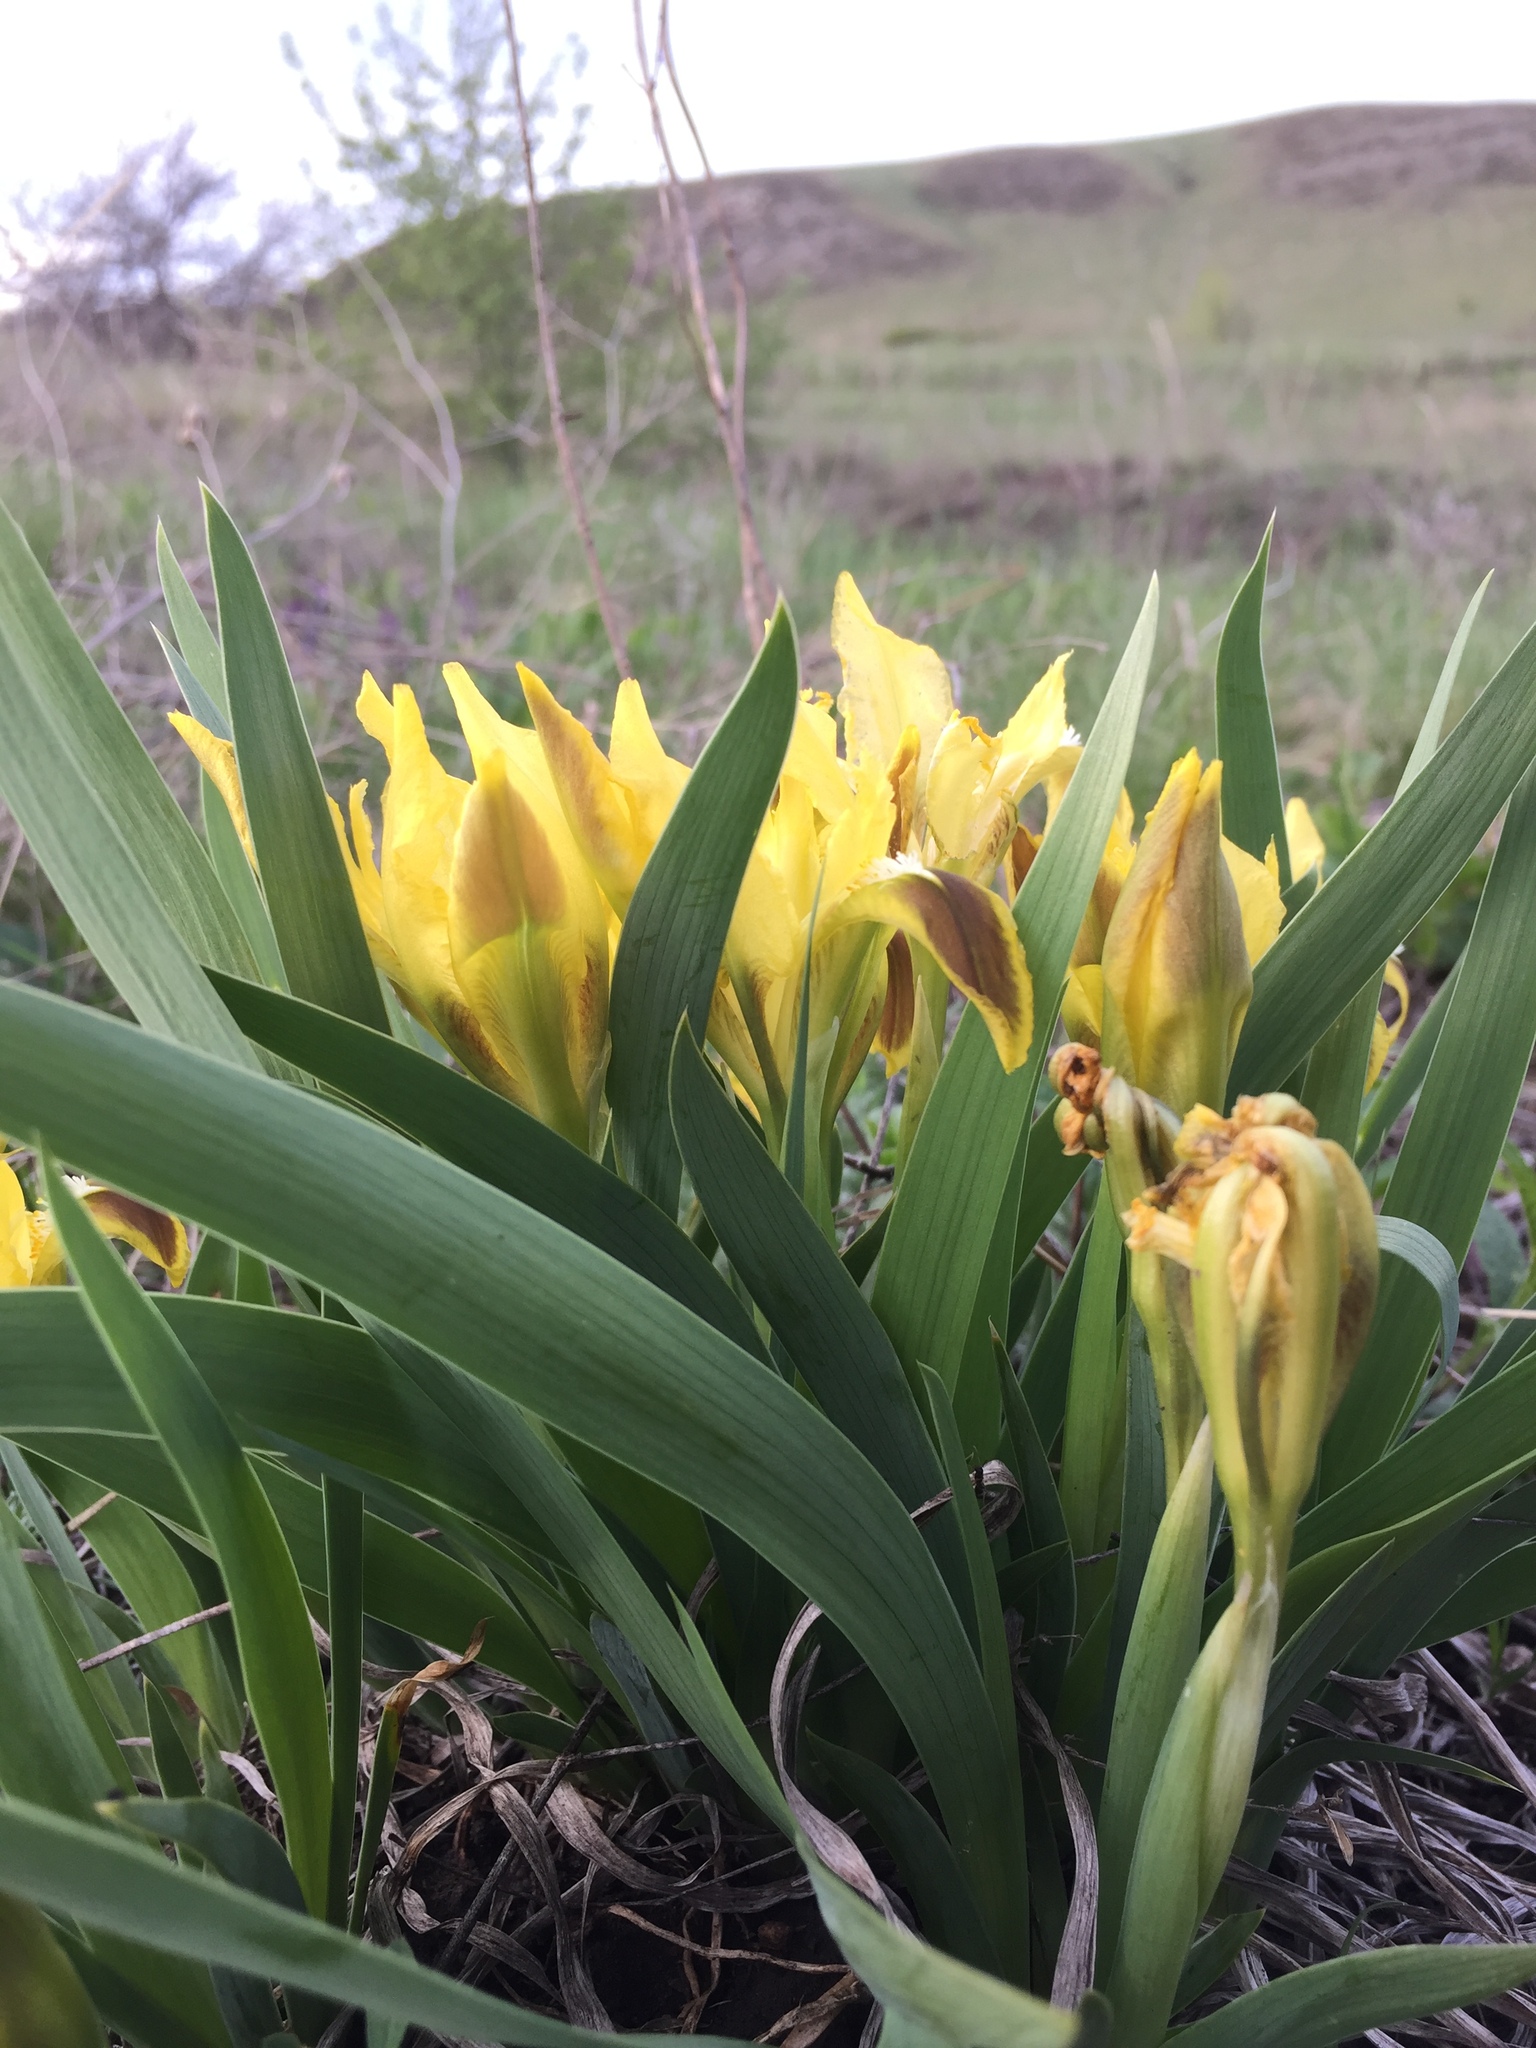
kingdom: Plantae
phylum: Tracheophyta
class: Liliopsida
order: Asparagales
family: Iridaceae
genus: Iris
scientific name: Iris pumila
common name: Dwarf iris
